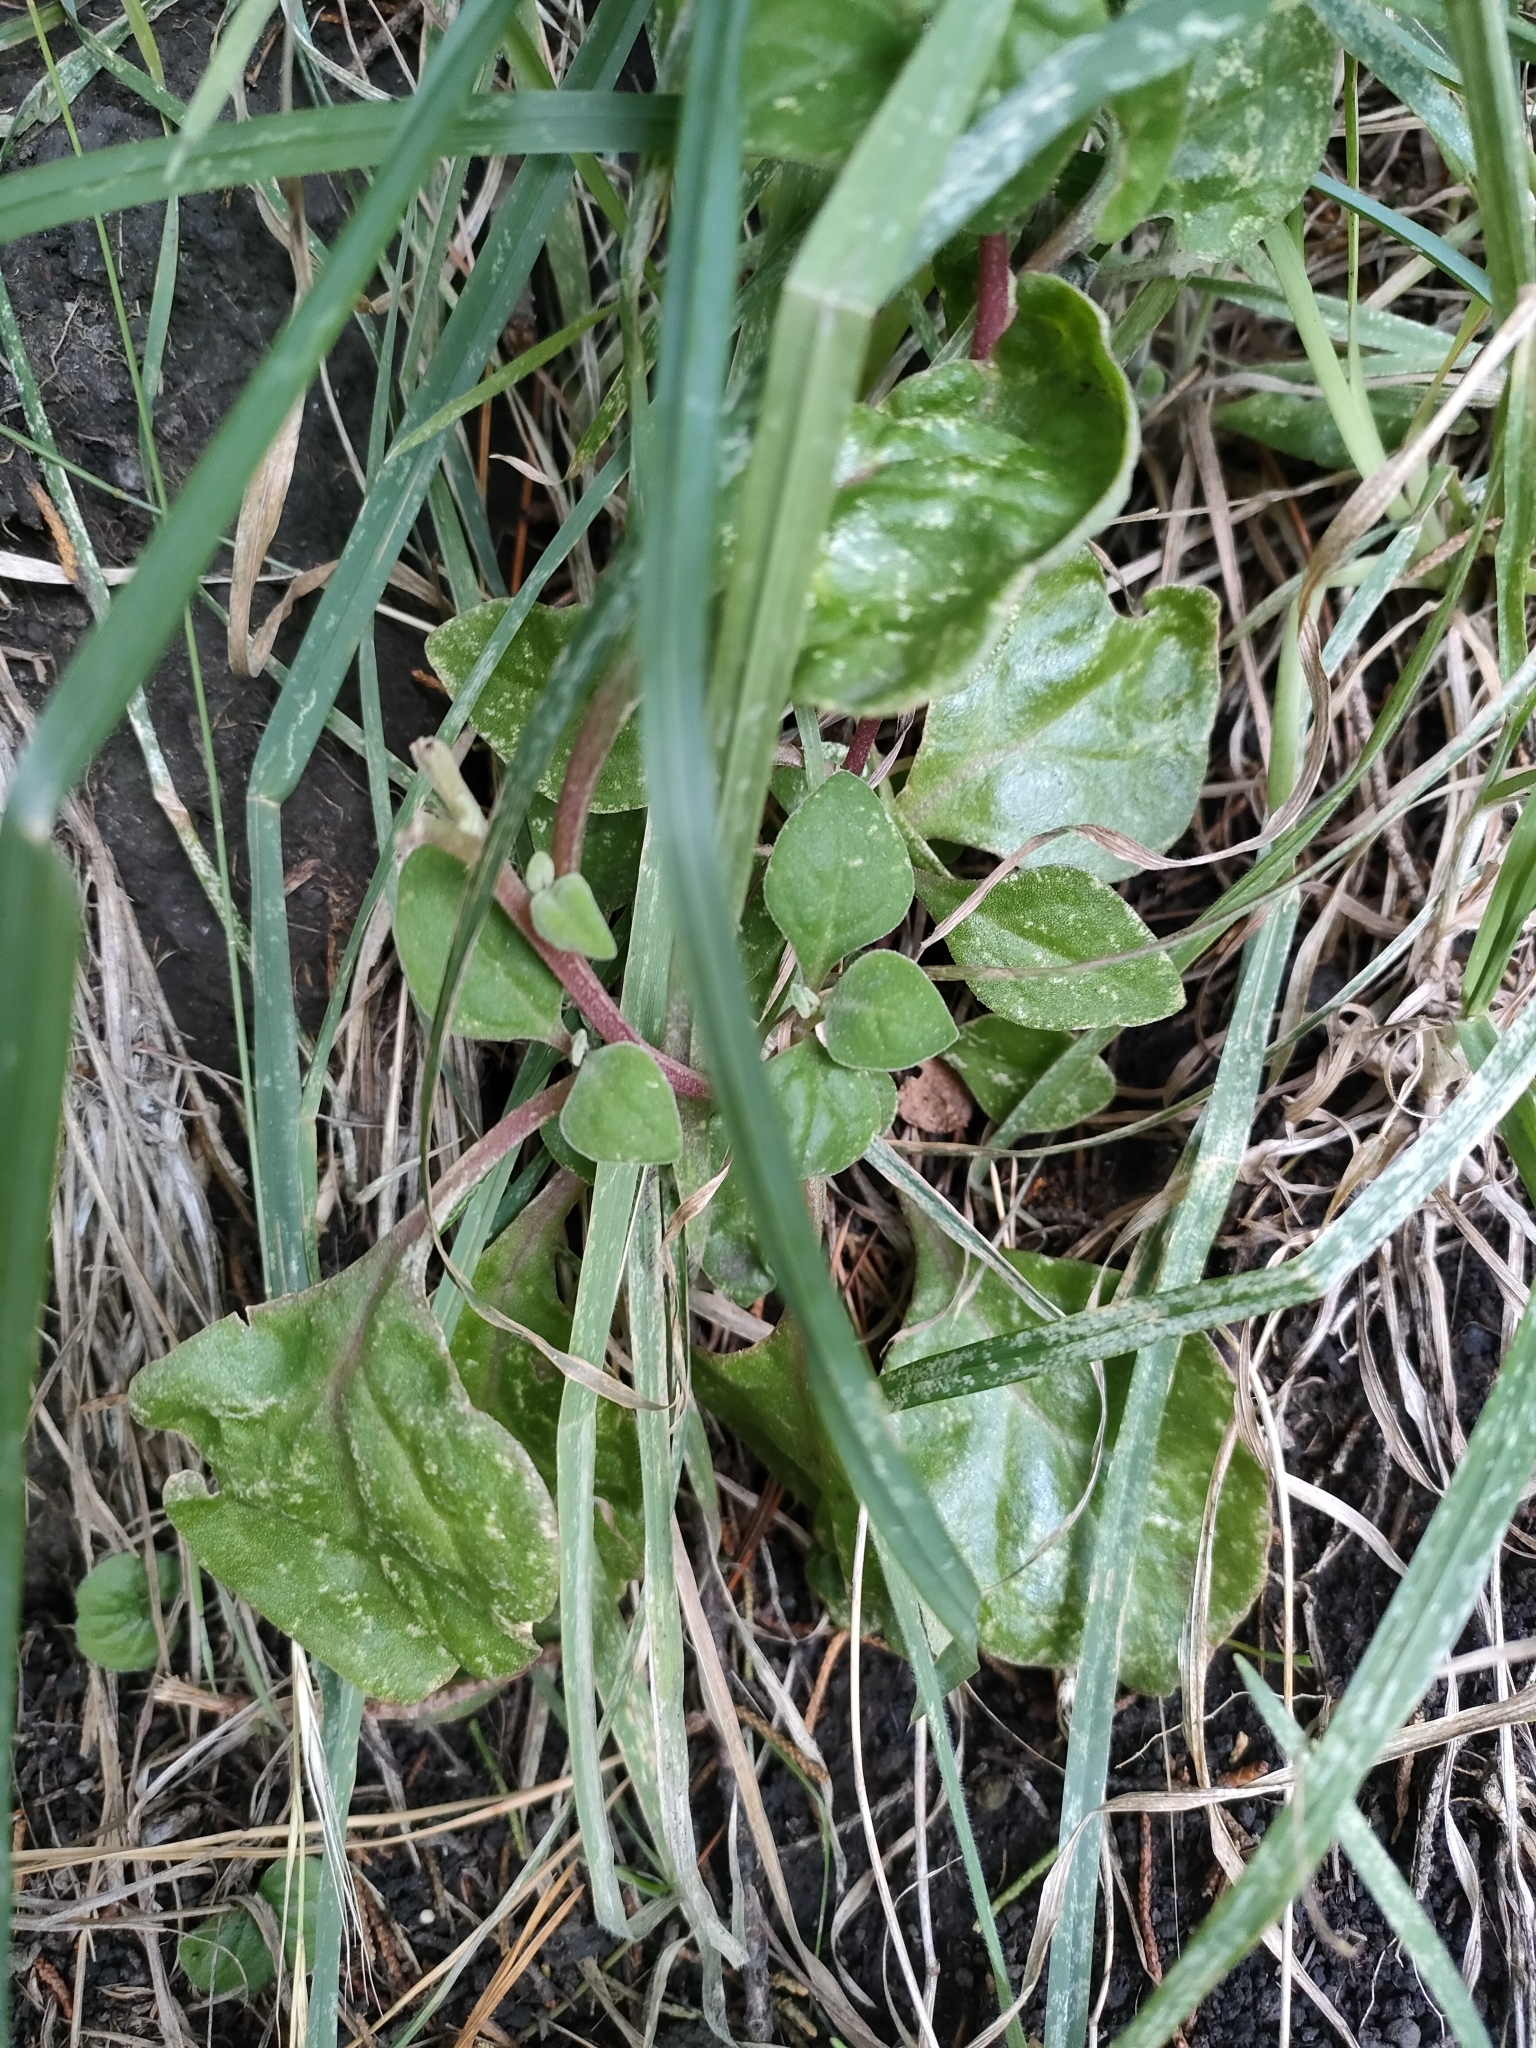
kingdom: Plantae
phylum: Tracheophyta
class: Magnoliopsida
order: Caryophyllales
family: Aizoaceae
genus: Tetragonia
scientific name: Tetragonia implexicoma
